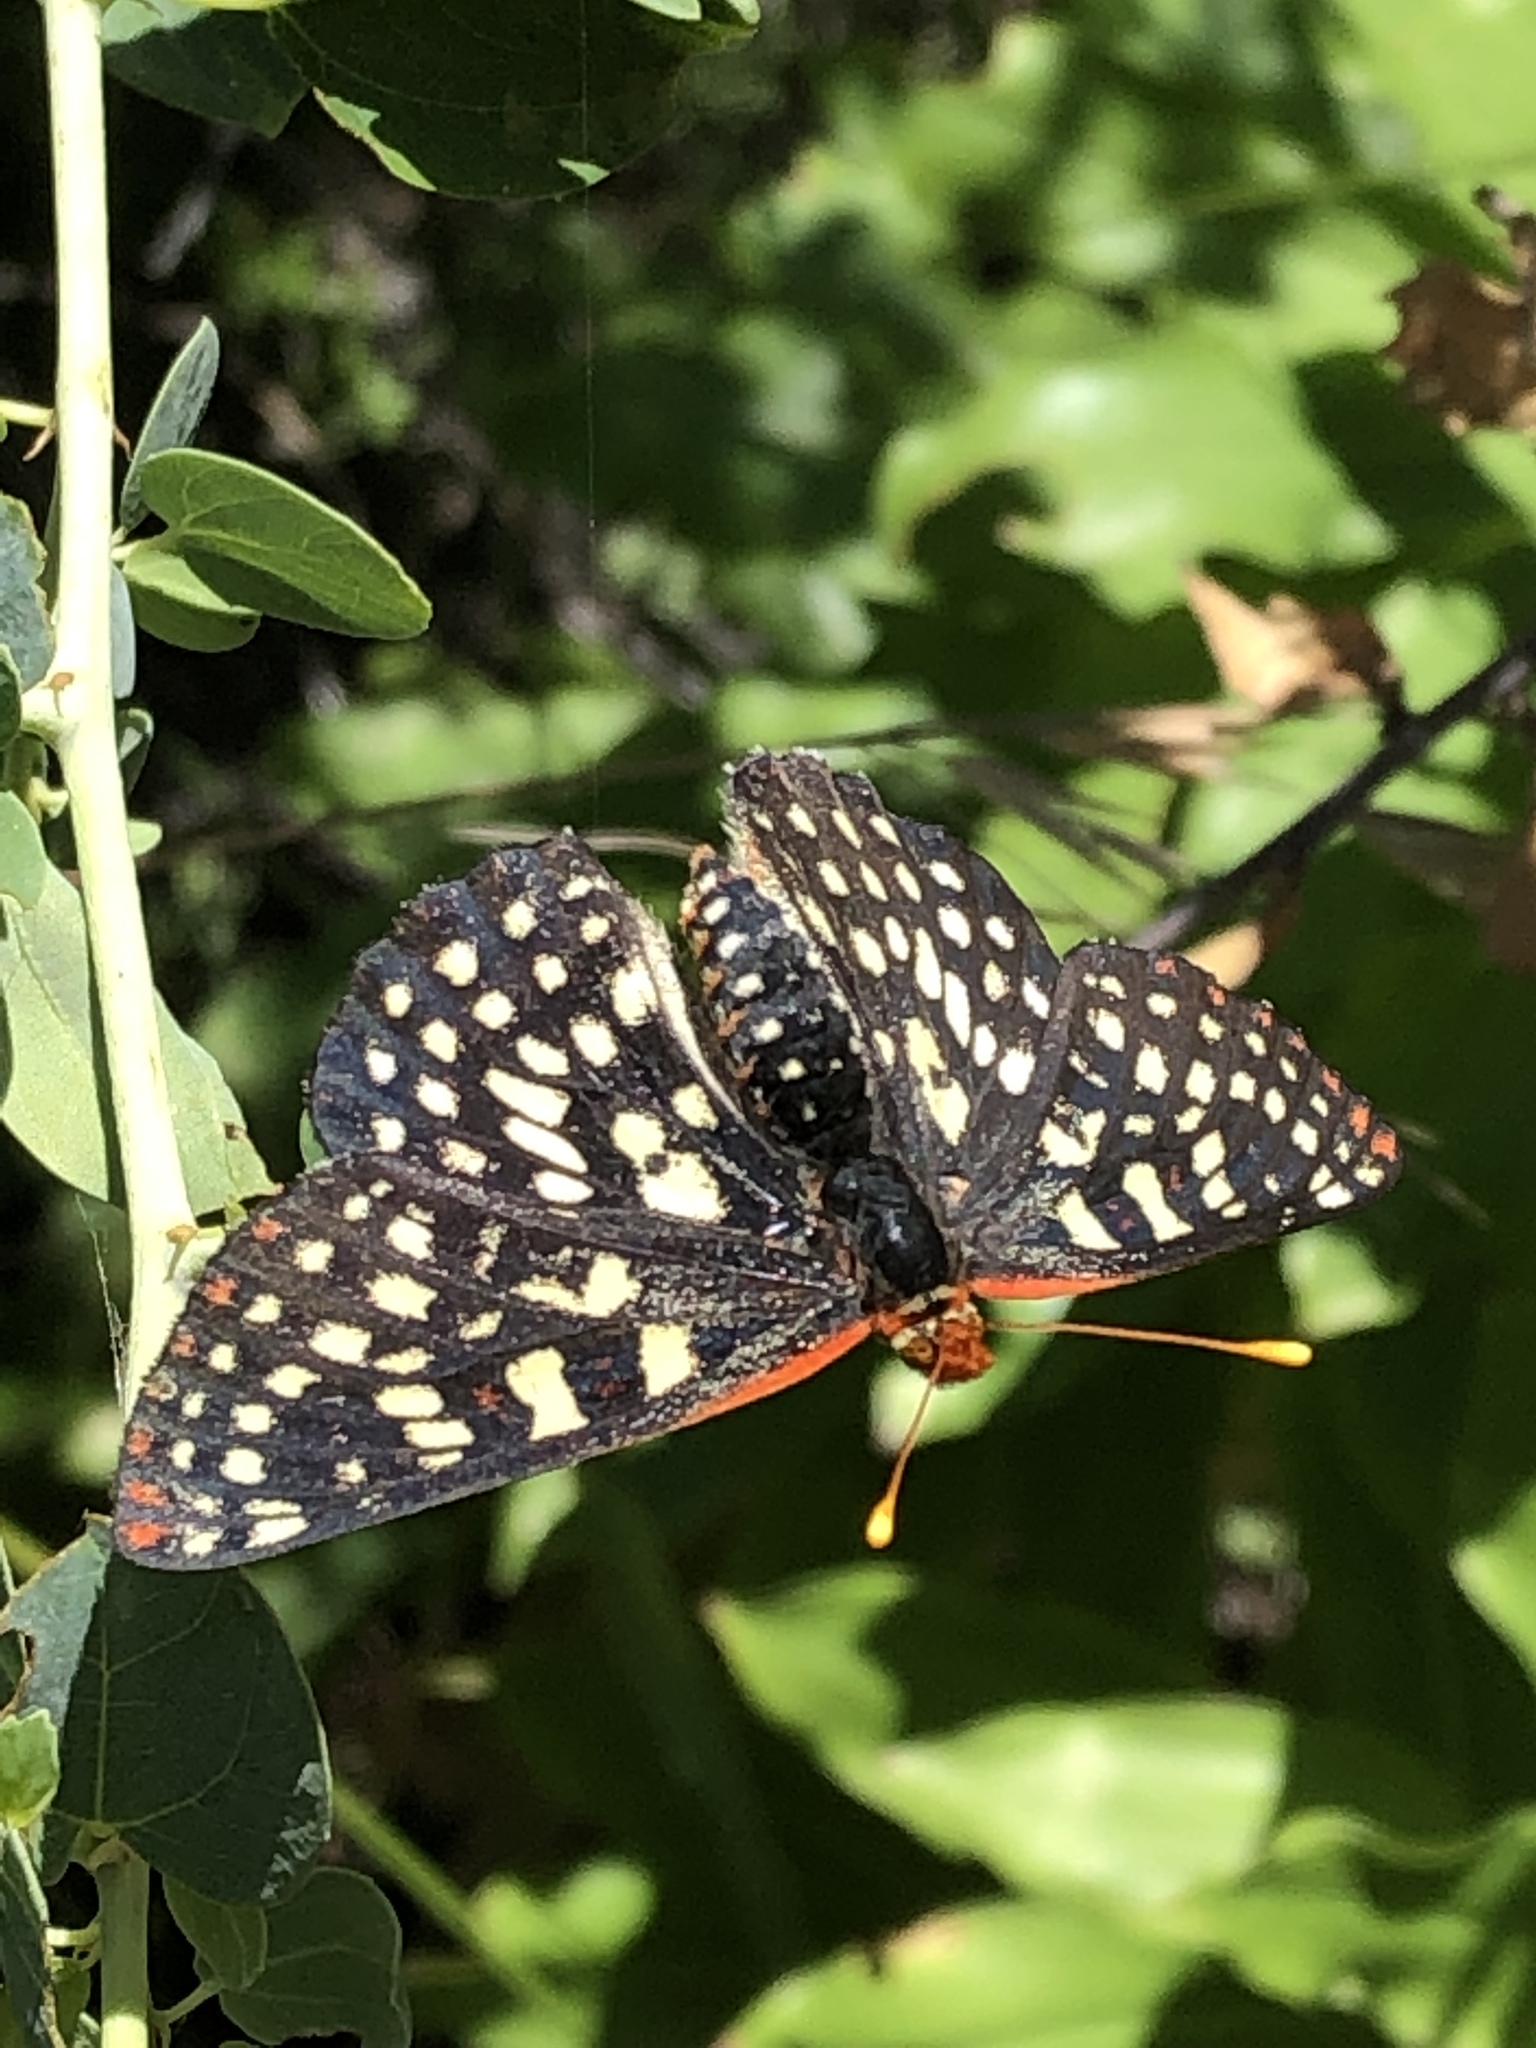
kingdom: Animalia
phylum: Arthropoda
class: Insecta
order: Lepidoptera
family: Nymphalidae
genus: Occidryas
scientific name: Occidryas chalcedona
